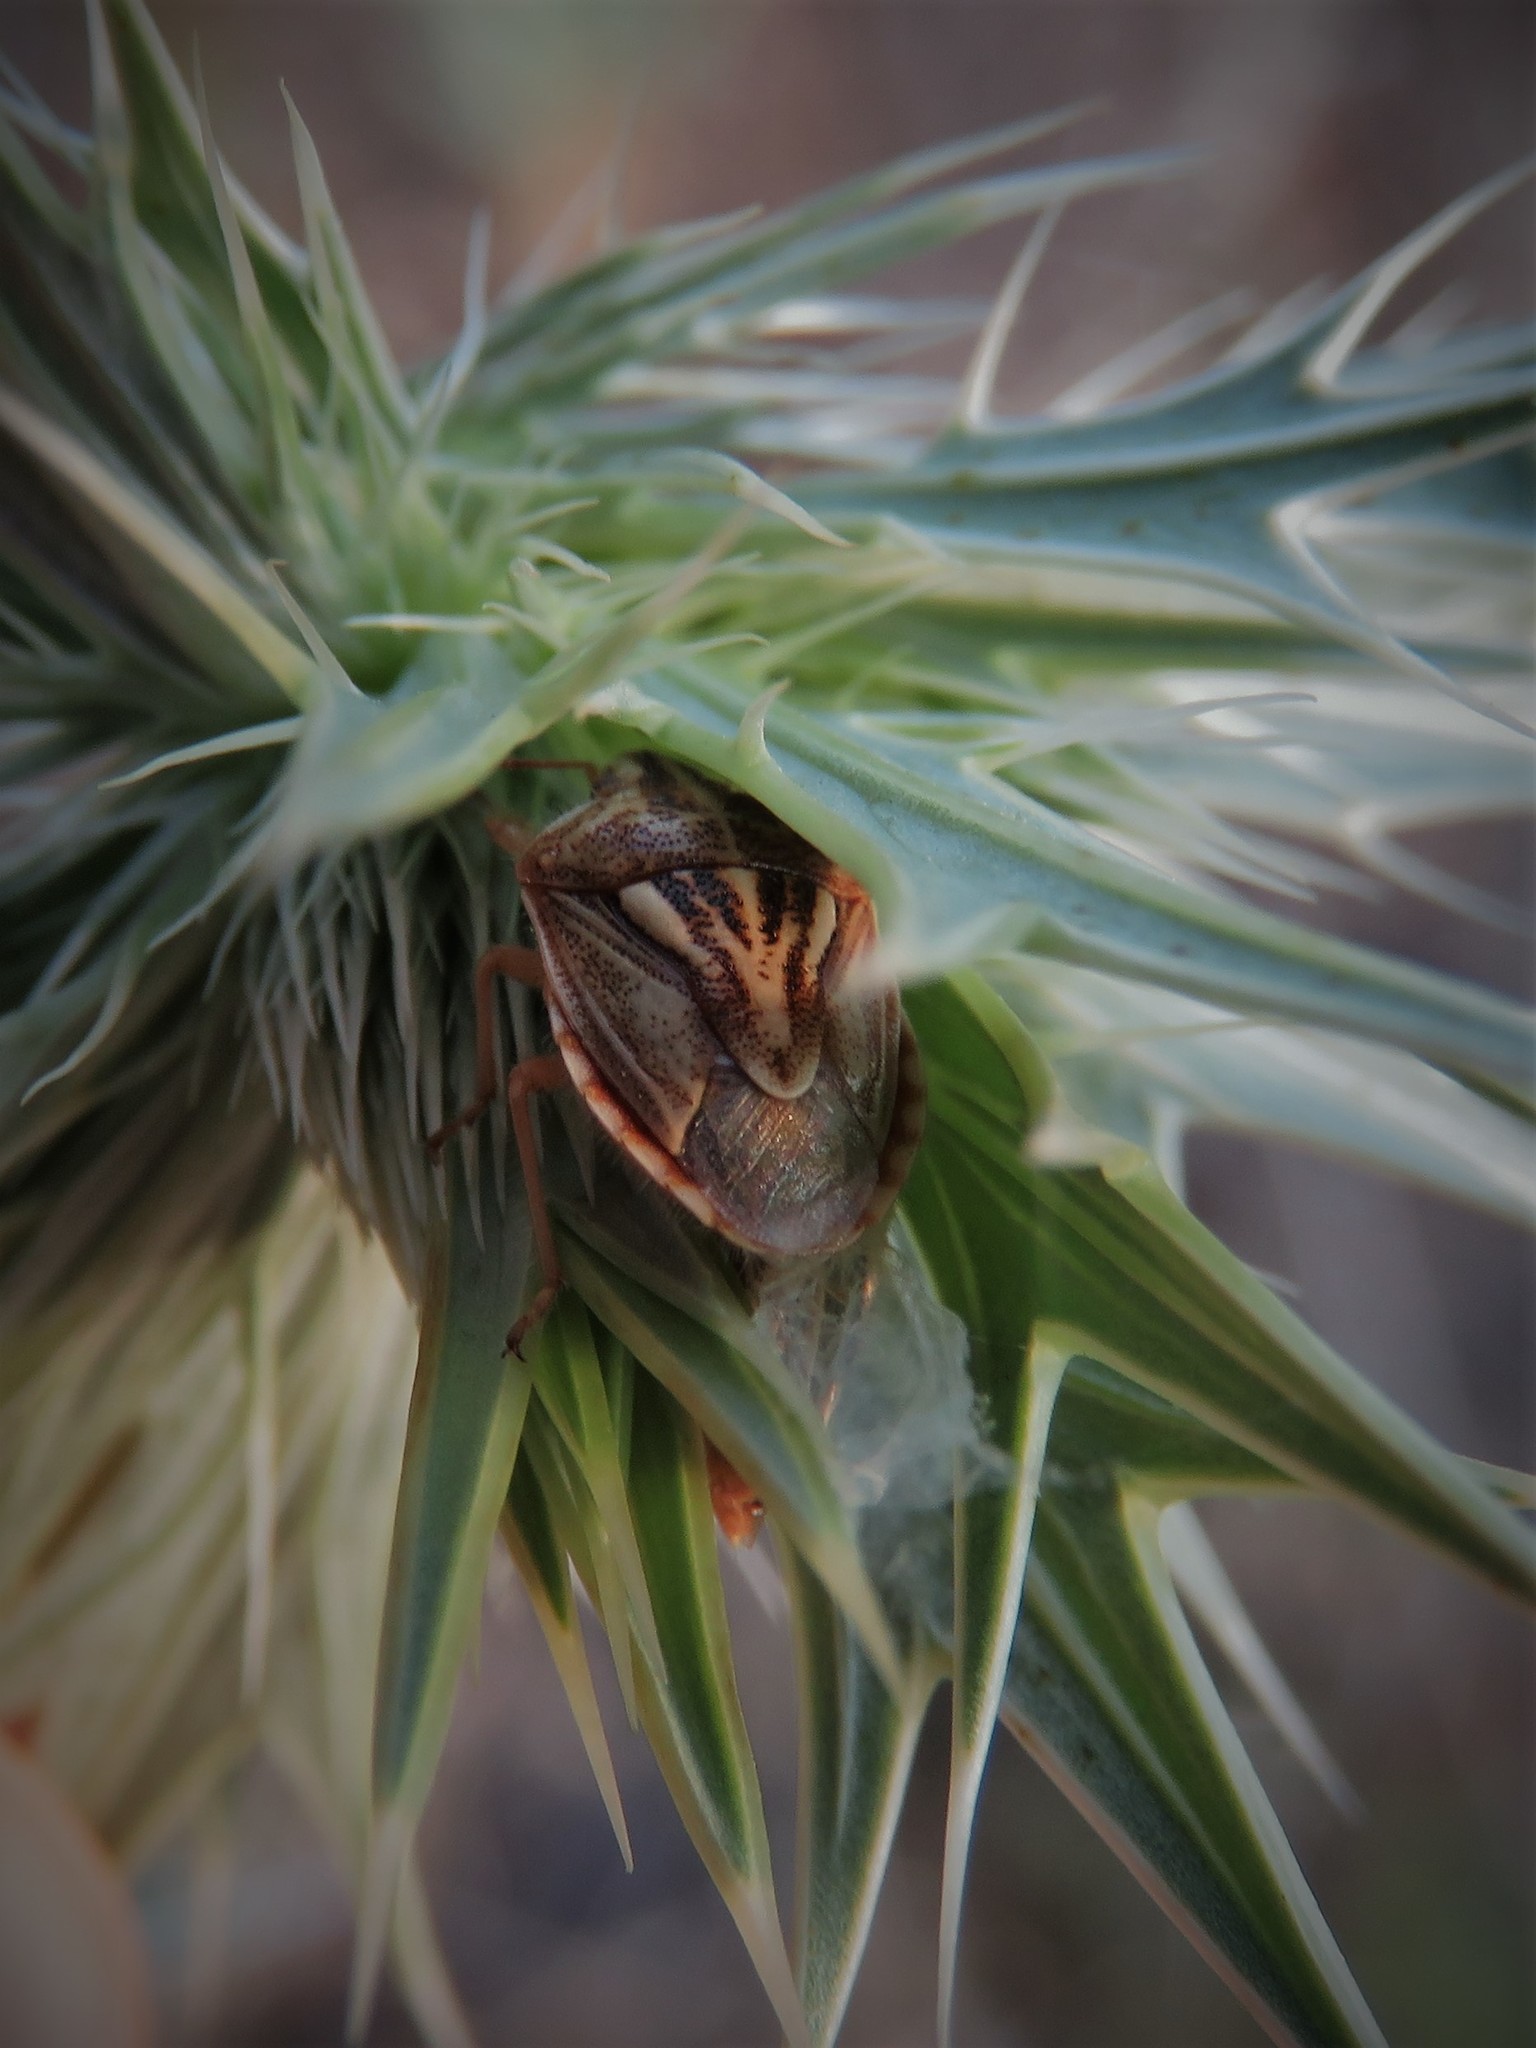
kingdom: Animalia
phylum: Arthropoda
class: Insecta
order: Hemiptera
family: Pentatomidae
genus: Trichopepla
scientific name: Trichopepla semivittata
